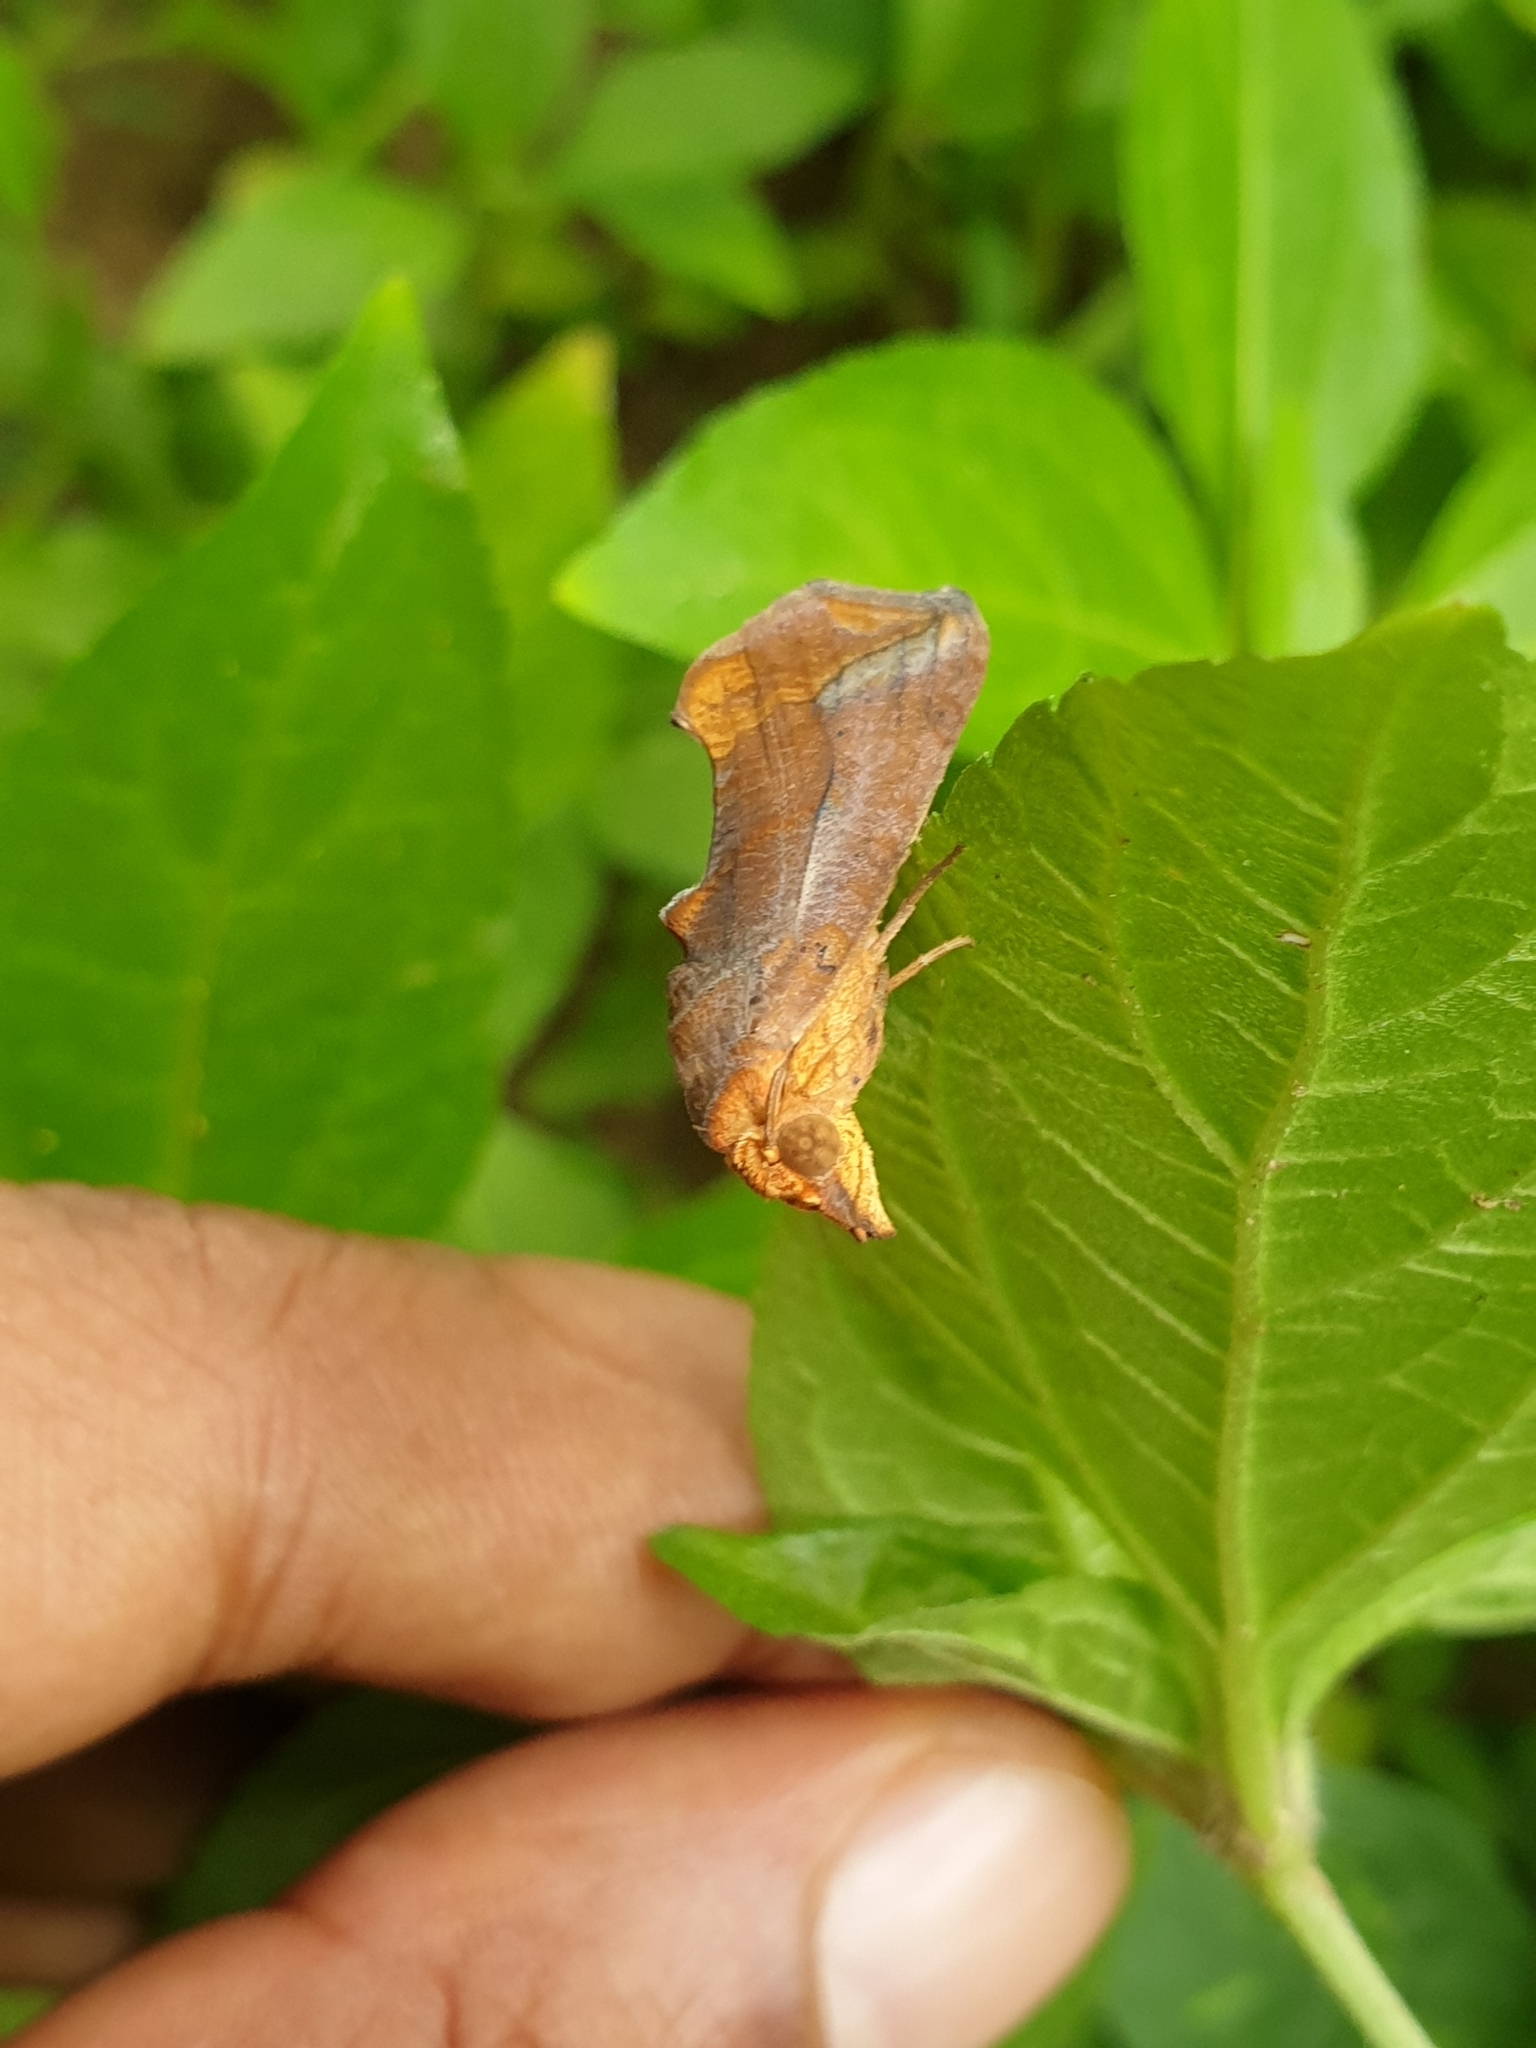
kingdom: Animalia
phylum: Arthropoda
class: Insecta
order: Lepidoptera
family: Erebidae
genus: Oraesia
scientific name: Oraesia emarginata
